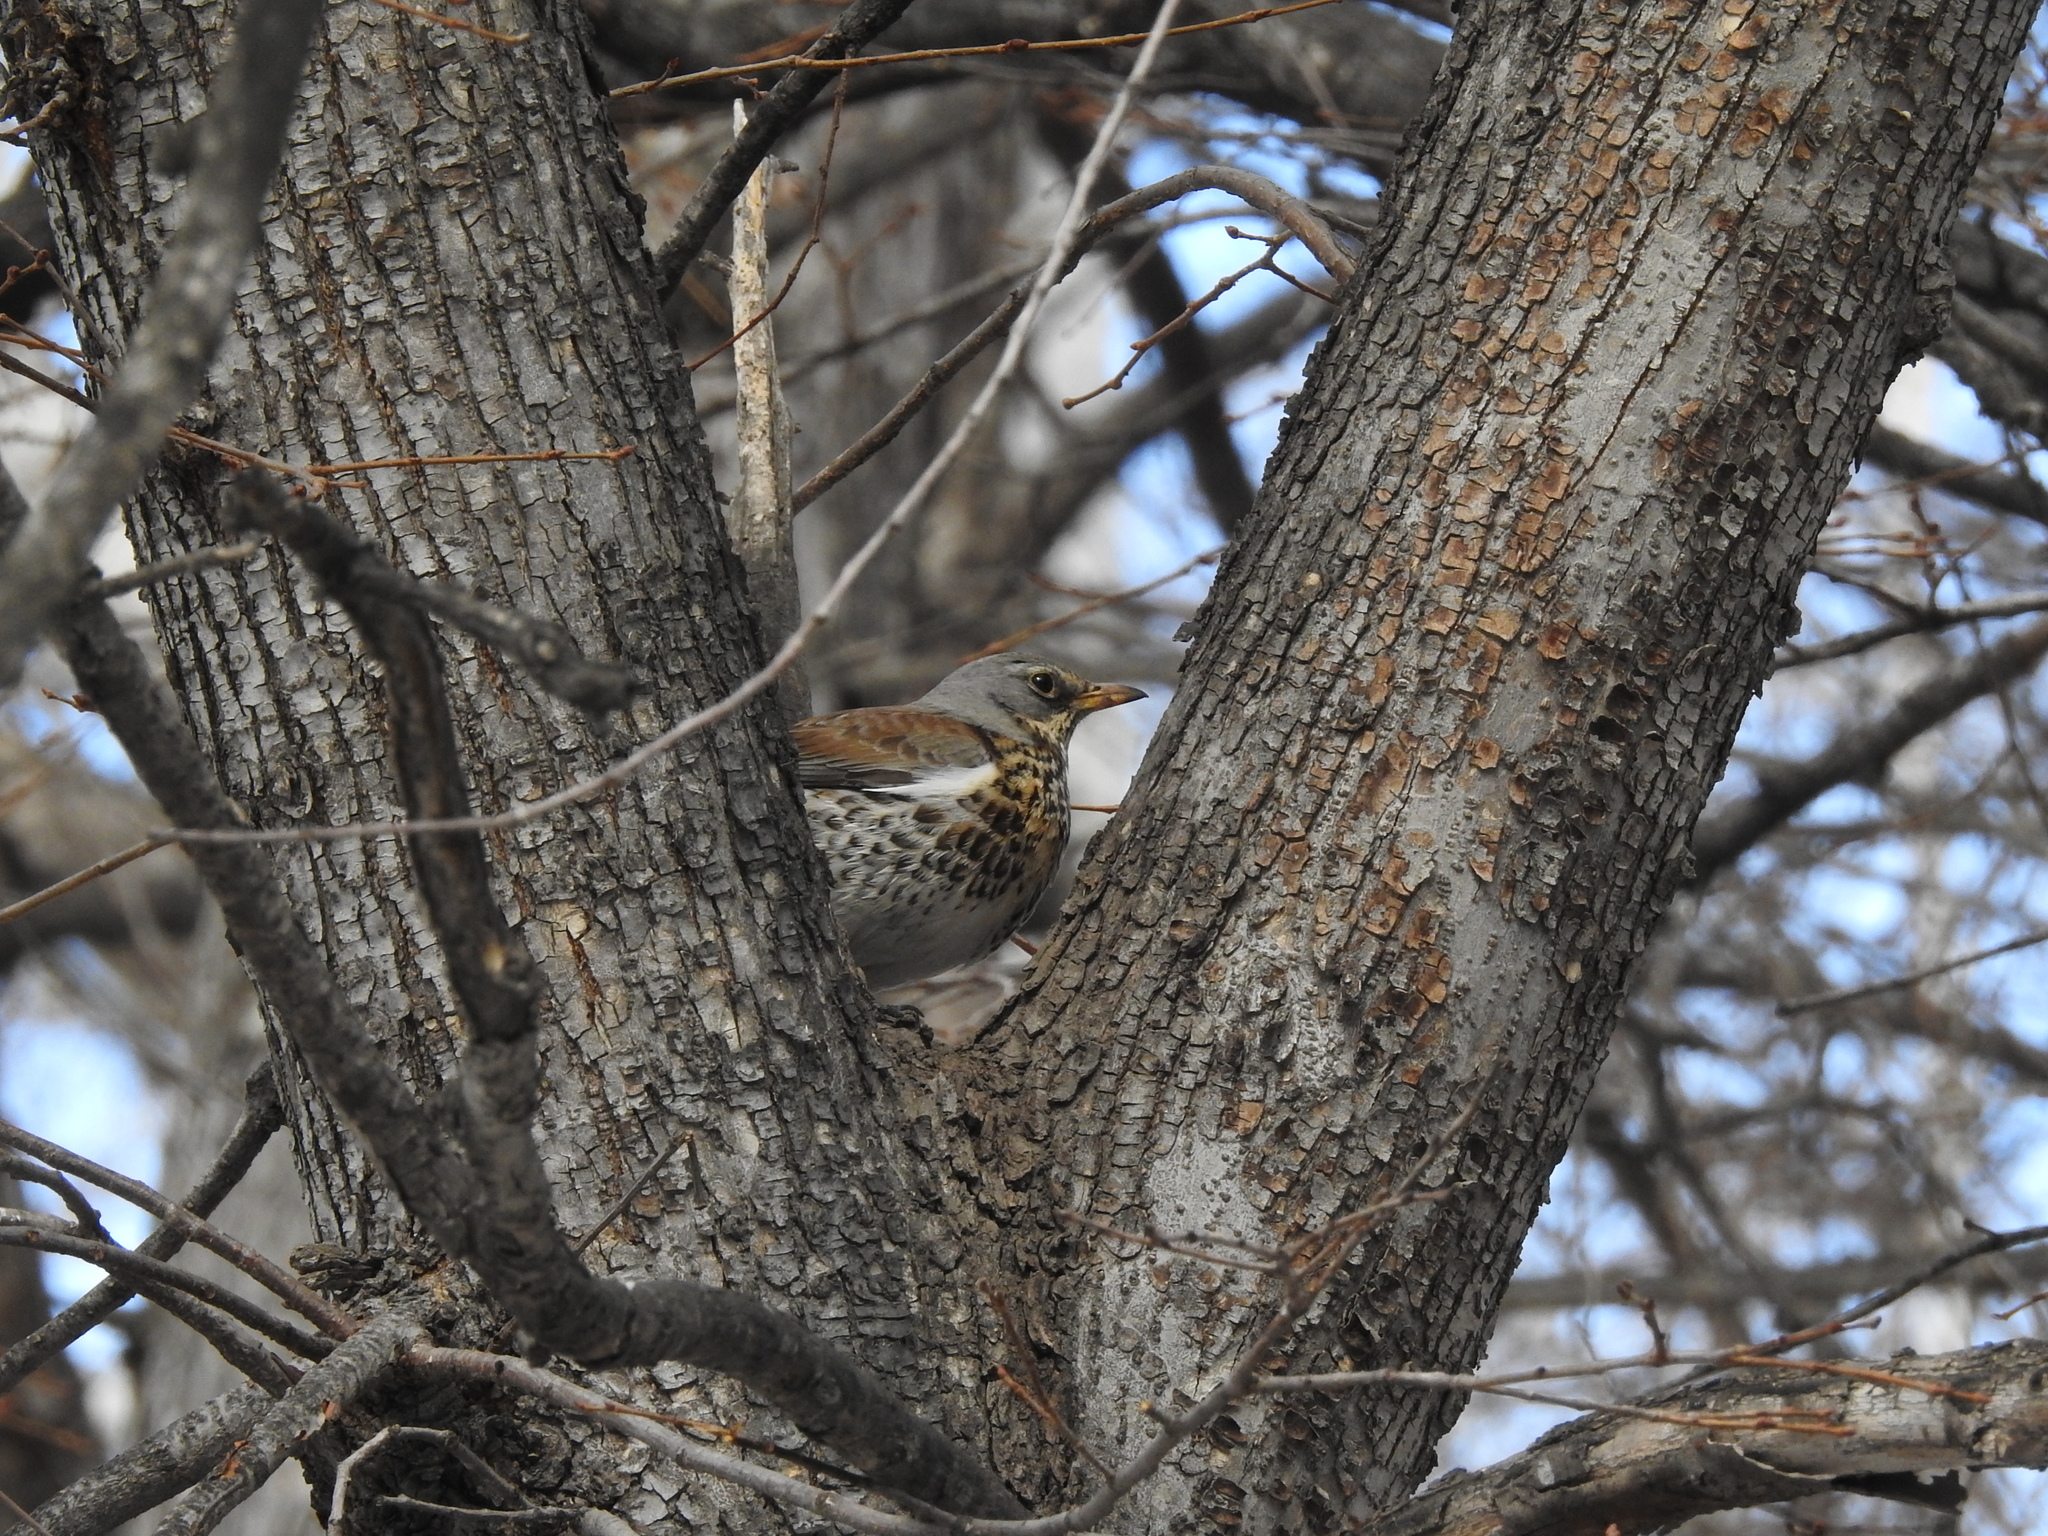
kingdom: Animalia
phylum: Chordata
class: Aves
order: Passeriformes
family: Turdidae
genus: Turdus
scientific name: Turdus pilaris
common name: Fieldfare
